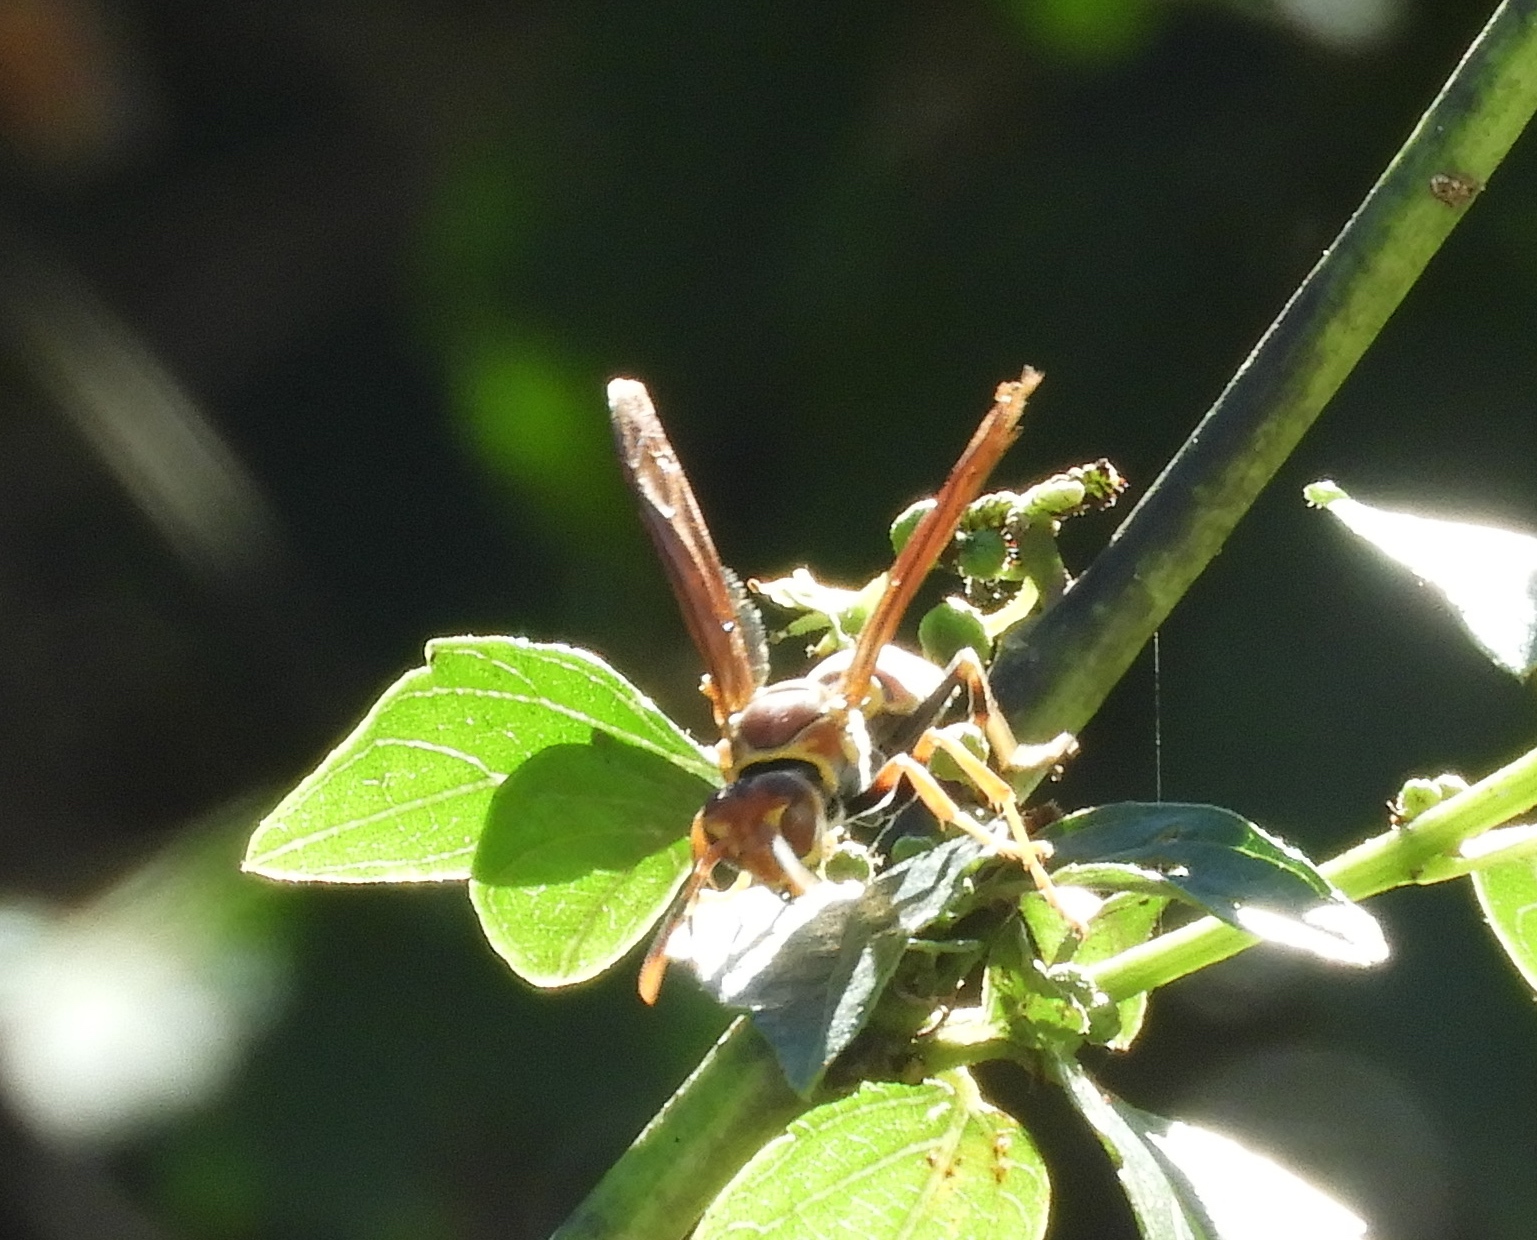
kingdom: Animalia
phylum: Arthropoda
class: Insecta
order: Hymenoptera
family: Pompilidae
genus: Aphanilopterus
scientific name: Aphanilopterus
